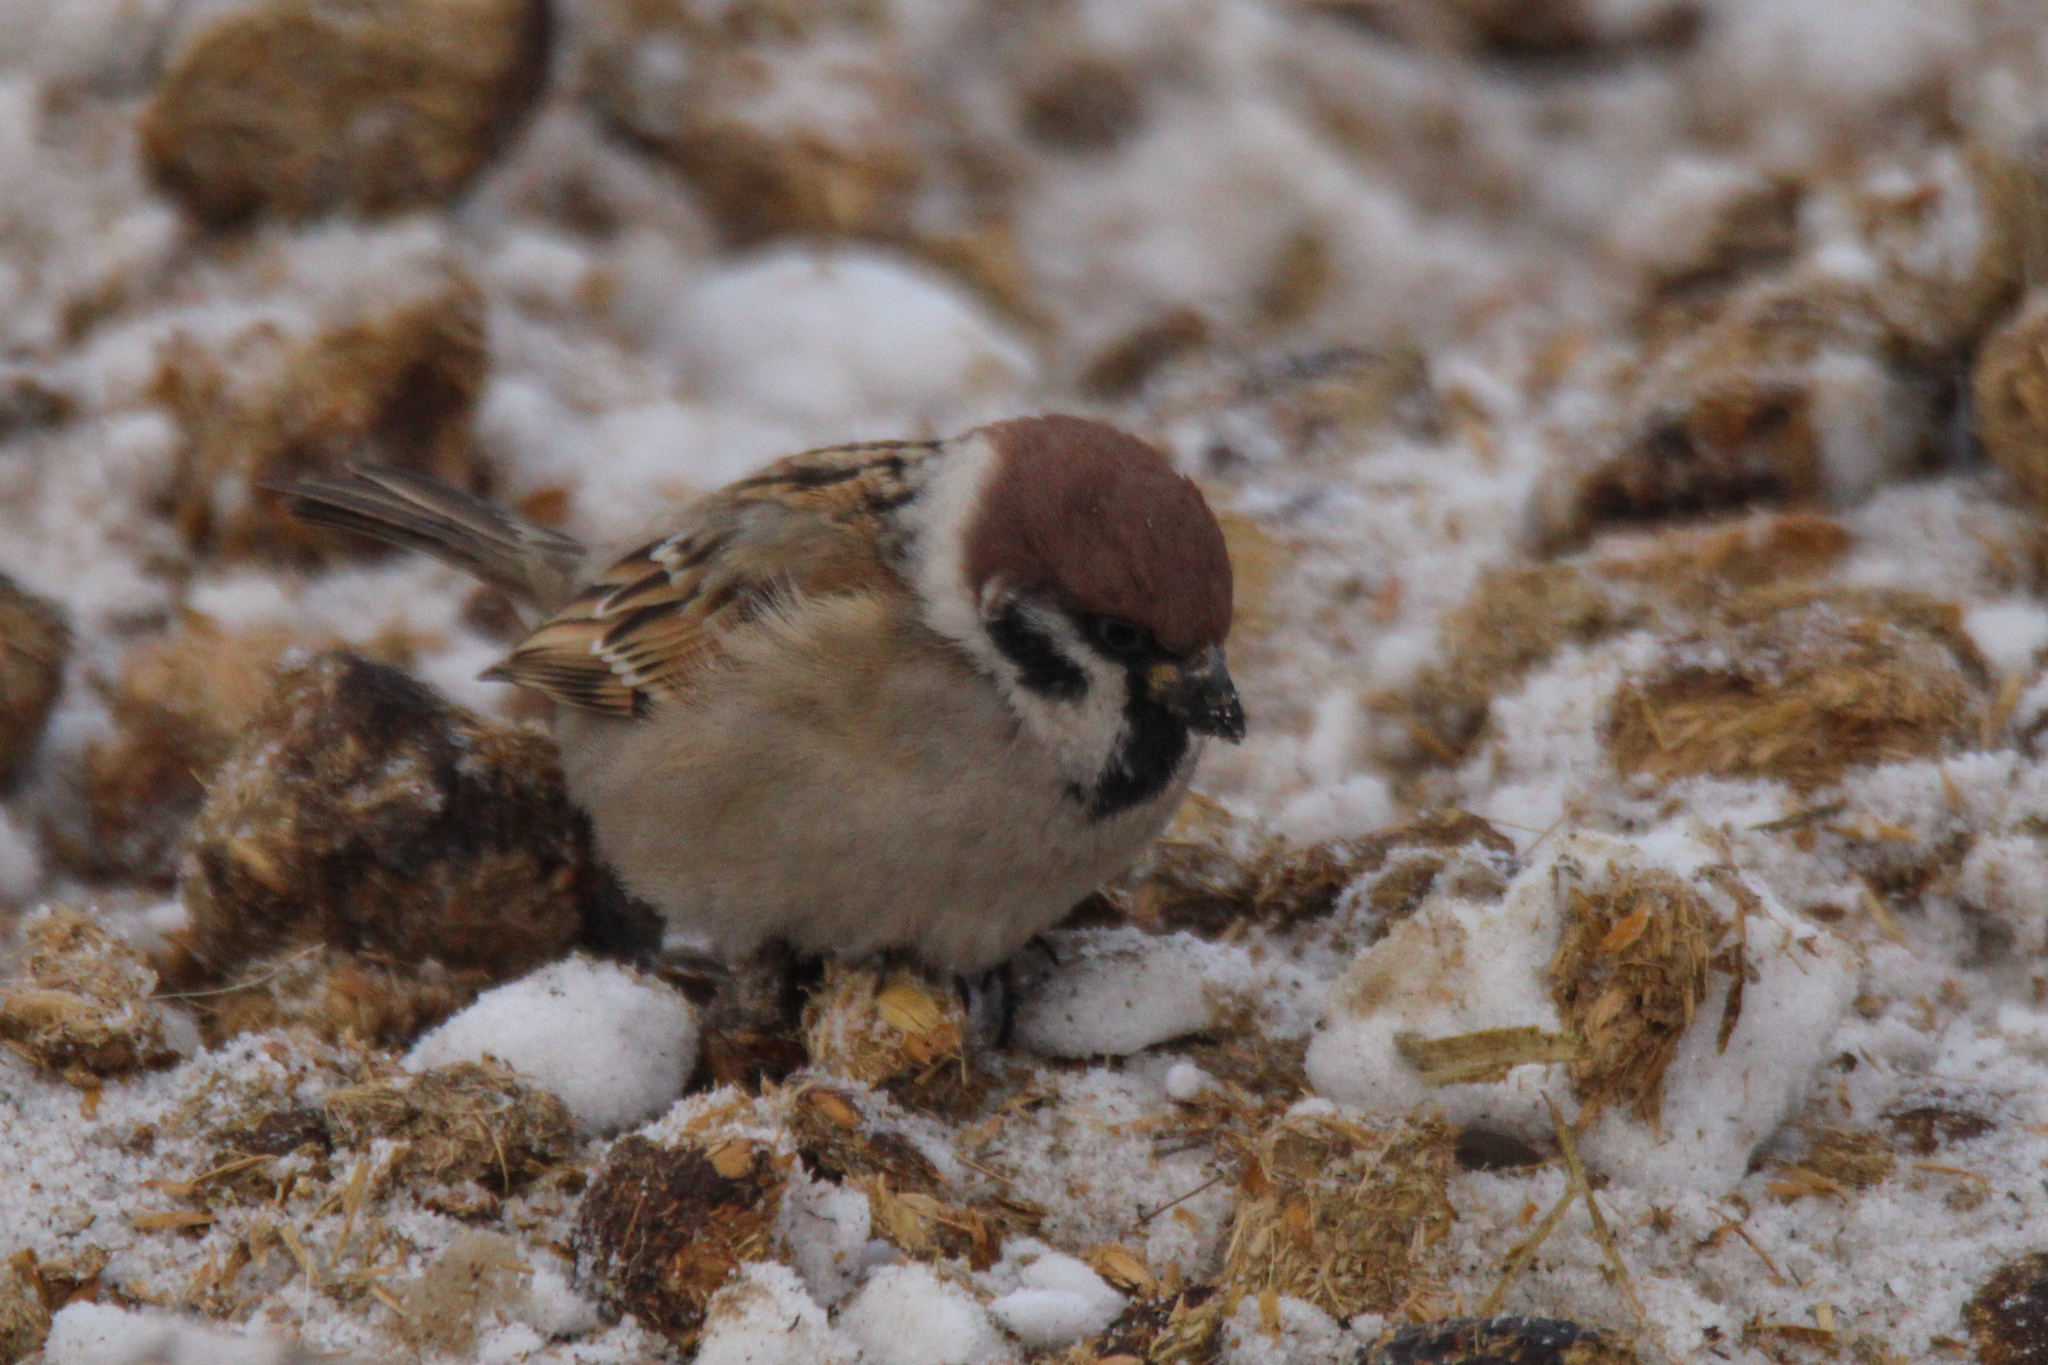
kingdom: Animalia
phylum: Chordata
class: Aves
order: Passeriformes
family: Passeridae
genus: Passer
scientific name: Passer montanus
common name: Eurasian tree sparrow
